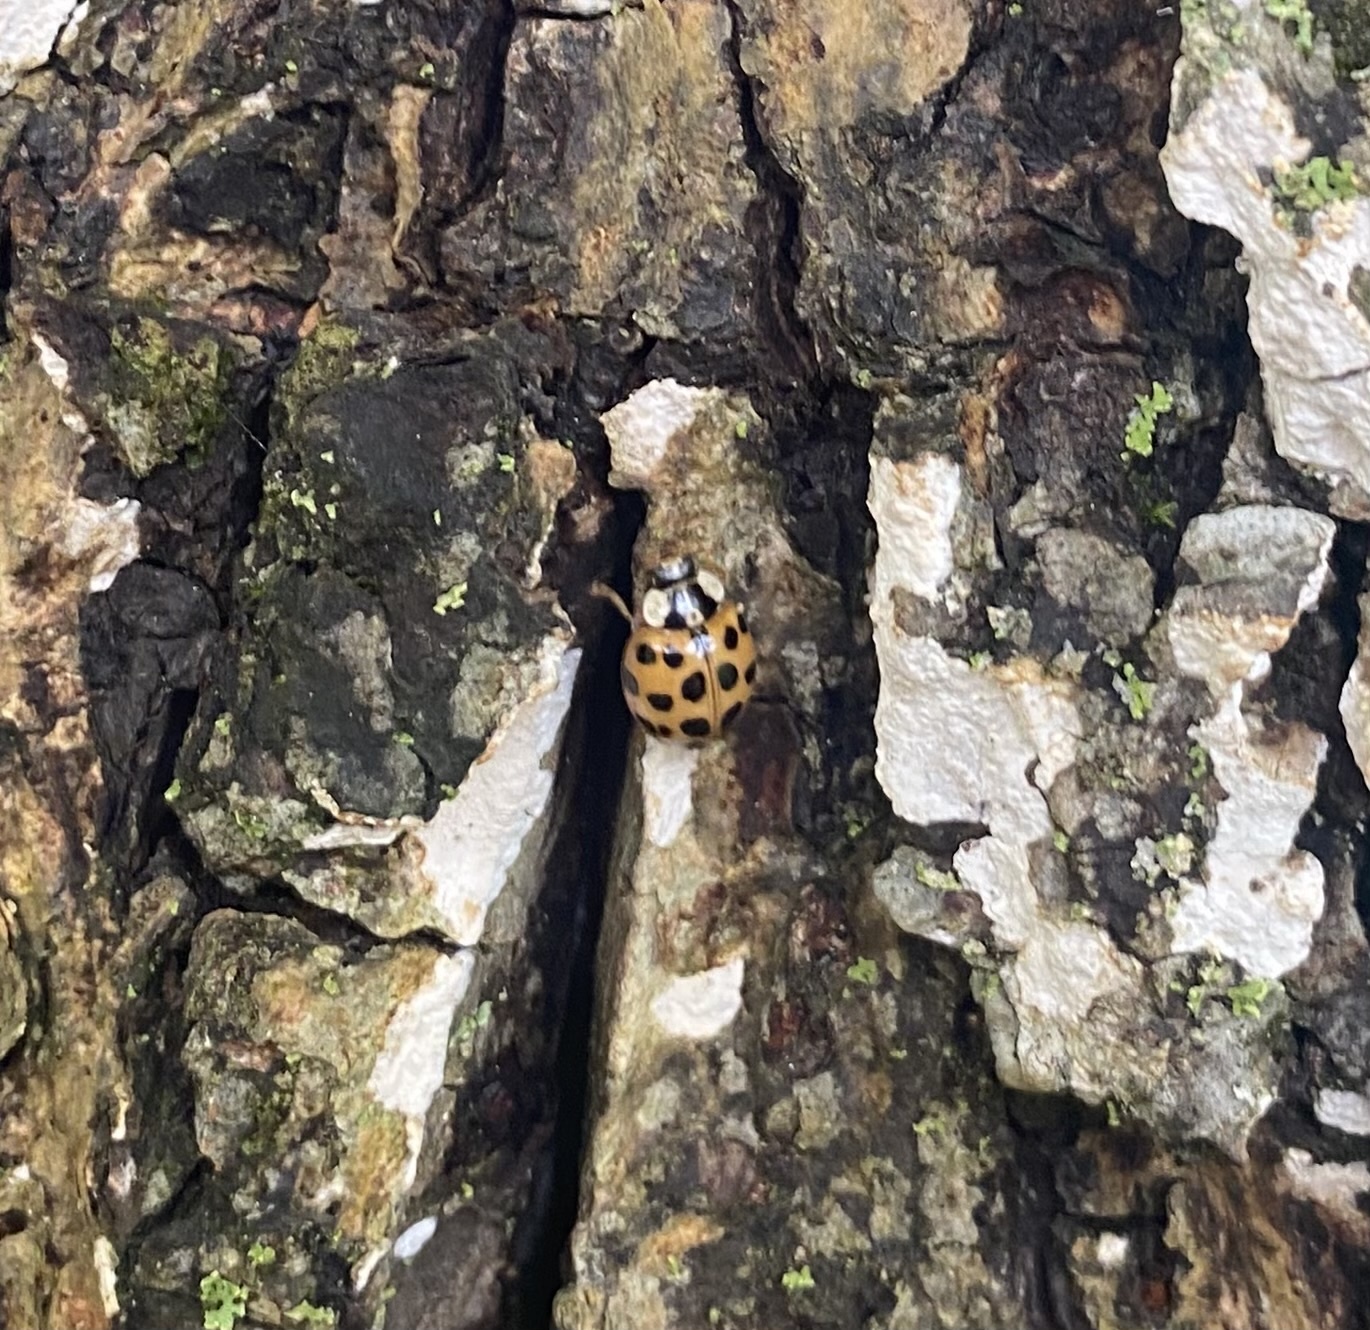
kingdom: Animalia
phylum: Arthropoda
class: Insecta
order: Coleoptera
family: Coccinellidae
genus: Harmonia
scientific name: Harmonia axyridis
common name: Harlequin ladybird
